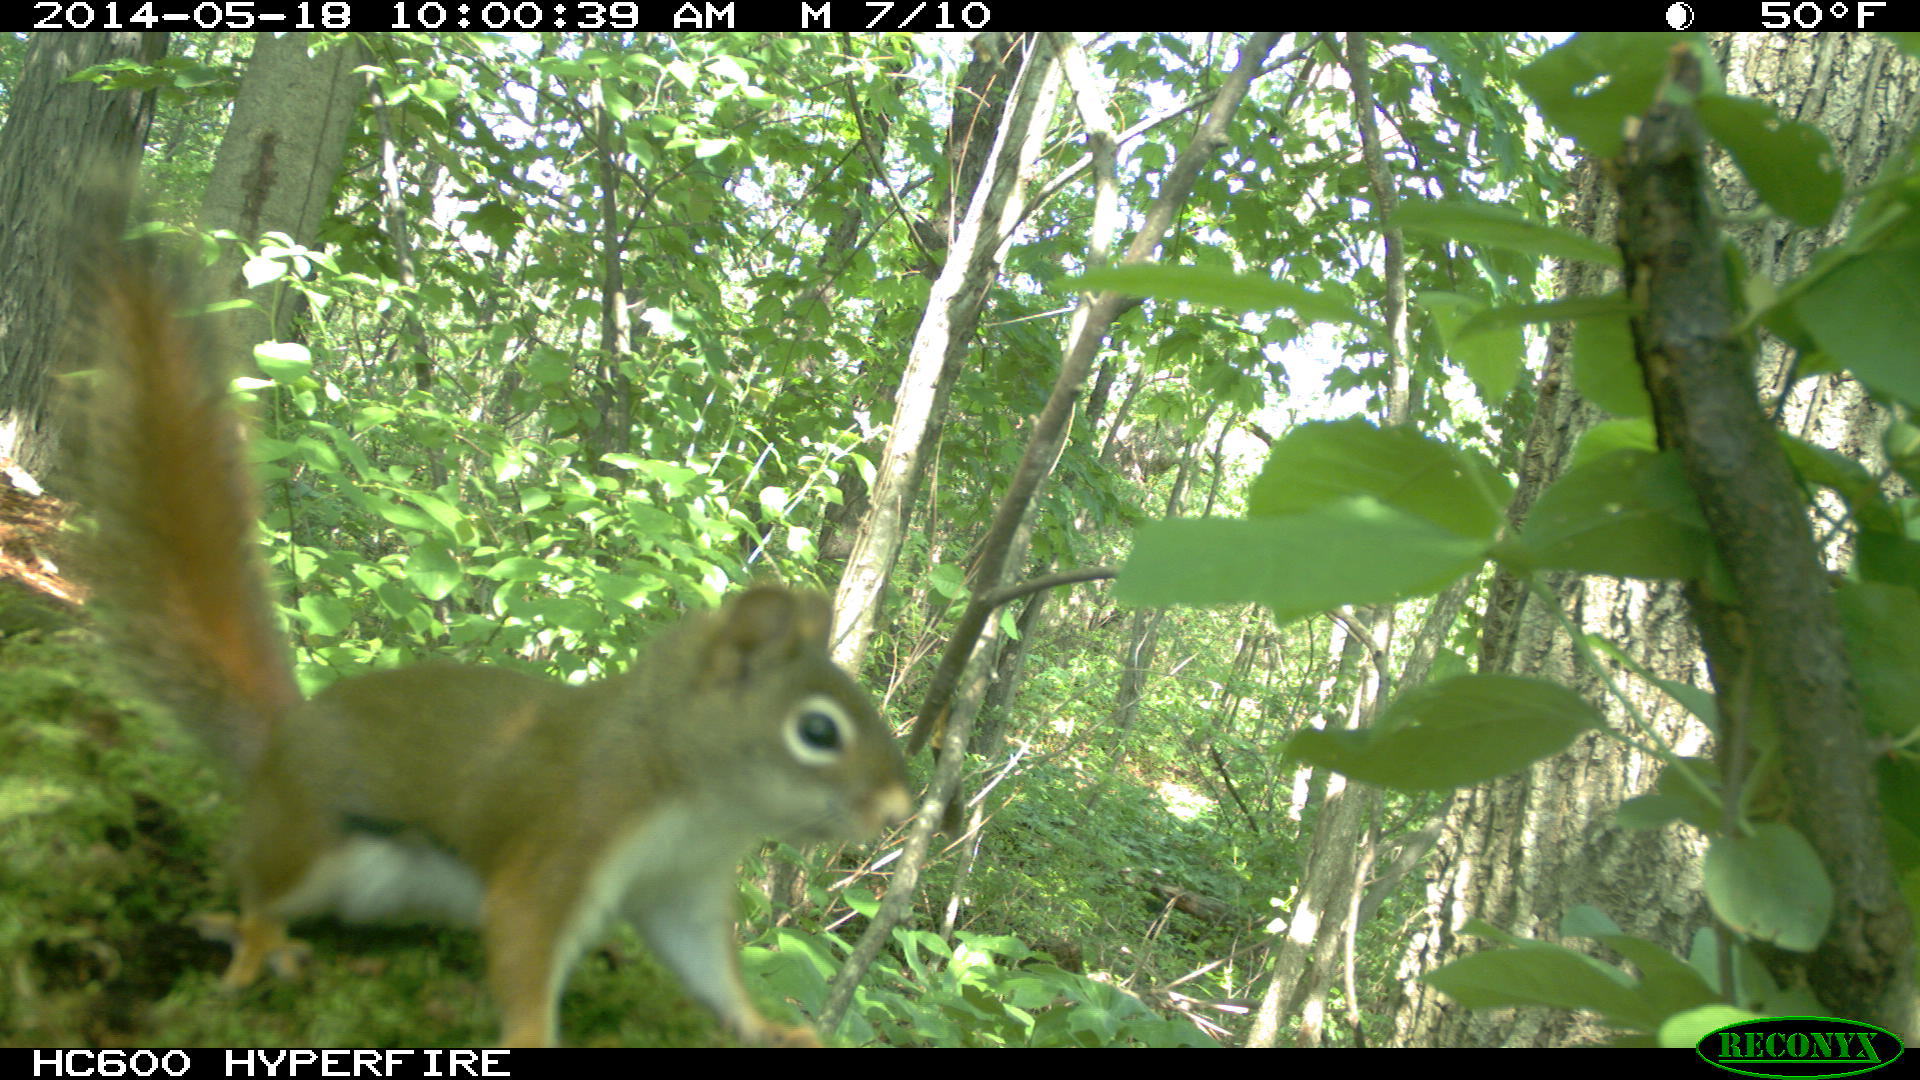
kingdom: Animalia
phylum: Chordata
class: Mammalia
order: Rodentia
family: Sciuridae
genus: Tamiasciurus
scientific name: Tamiasciurus hudsonicus
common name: Red squirrel
